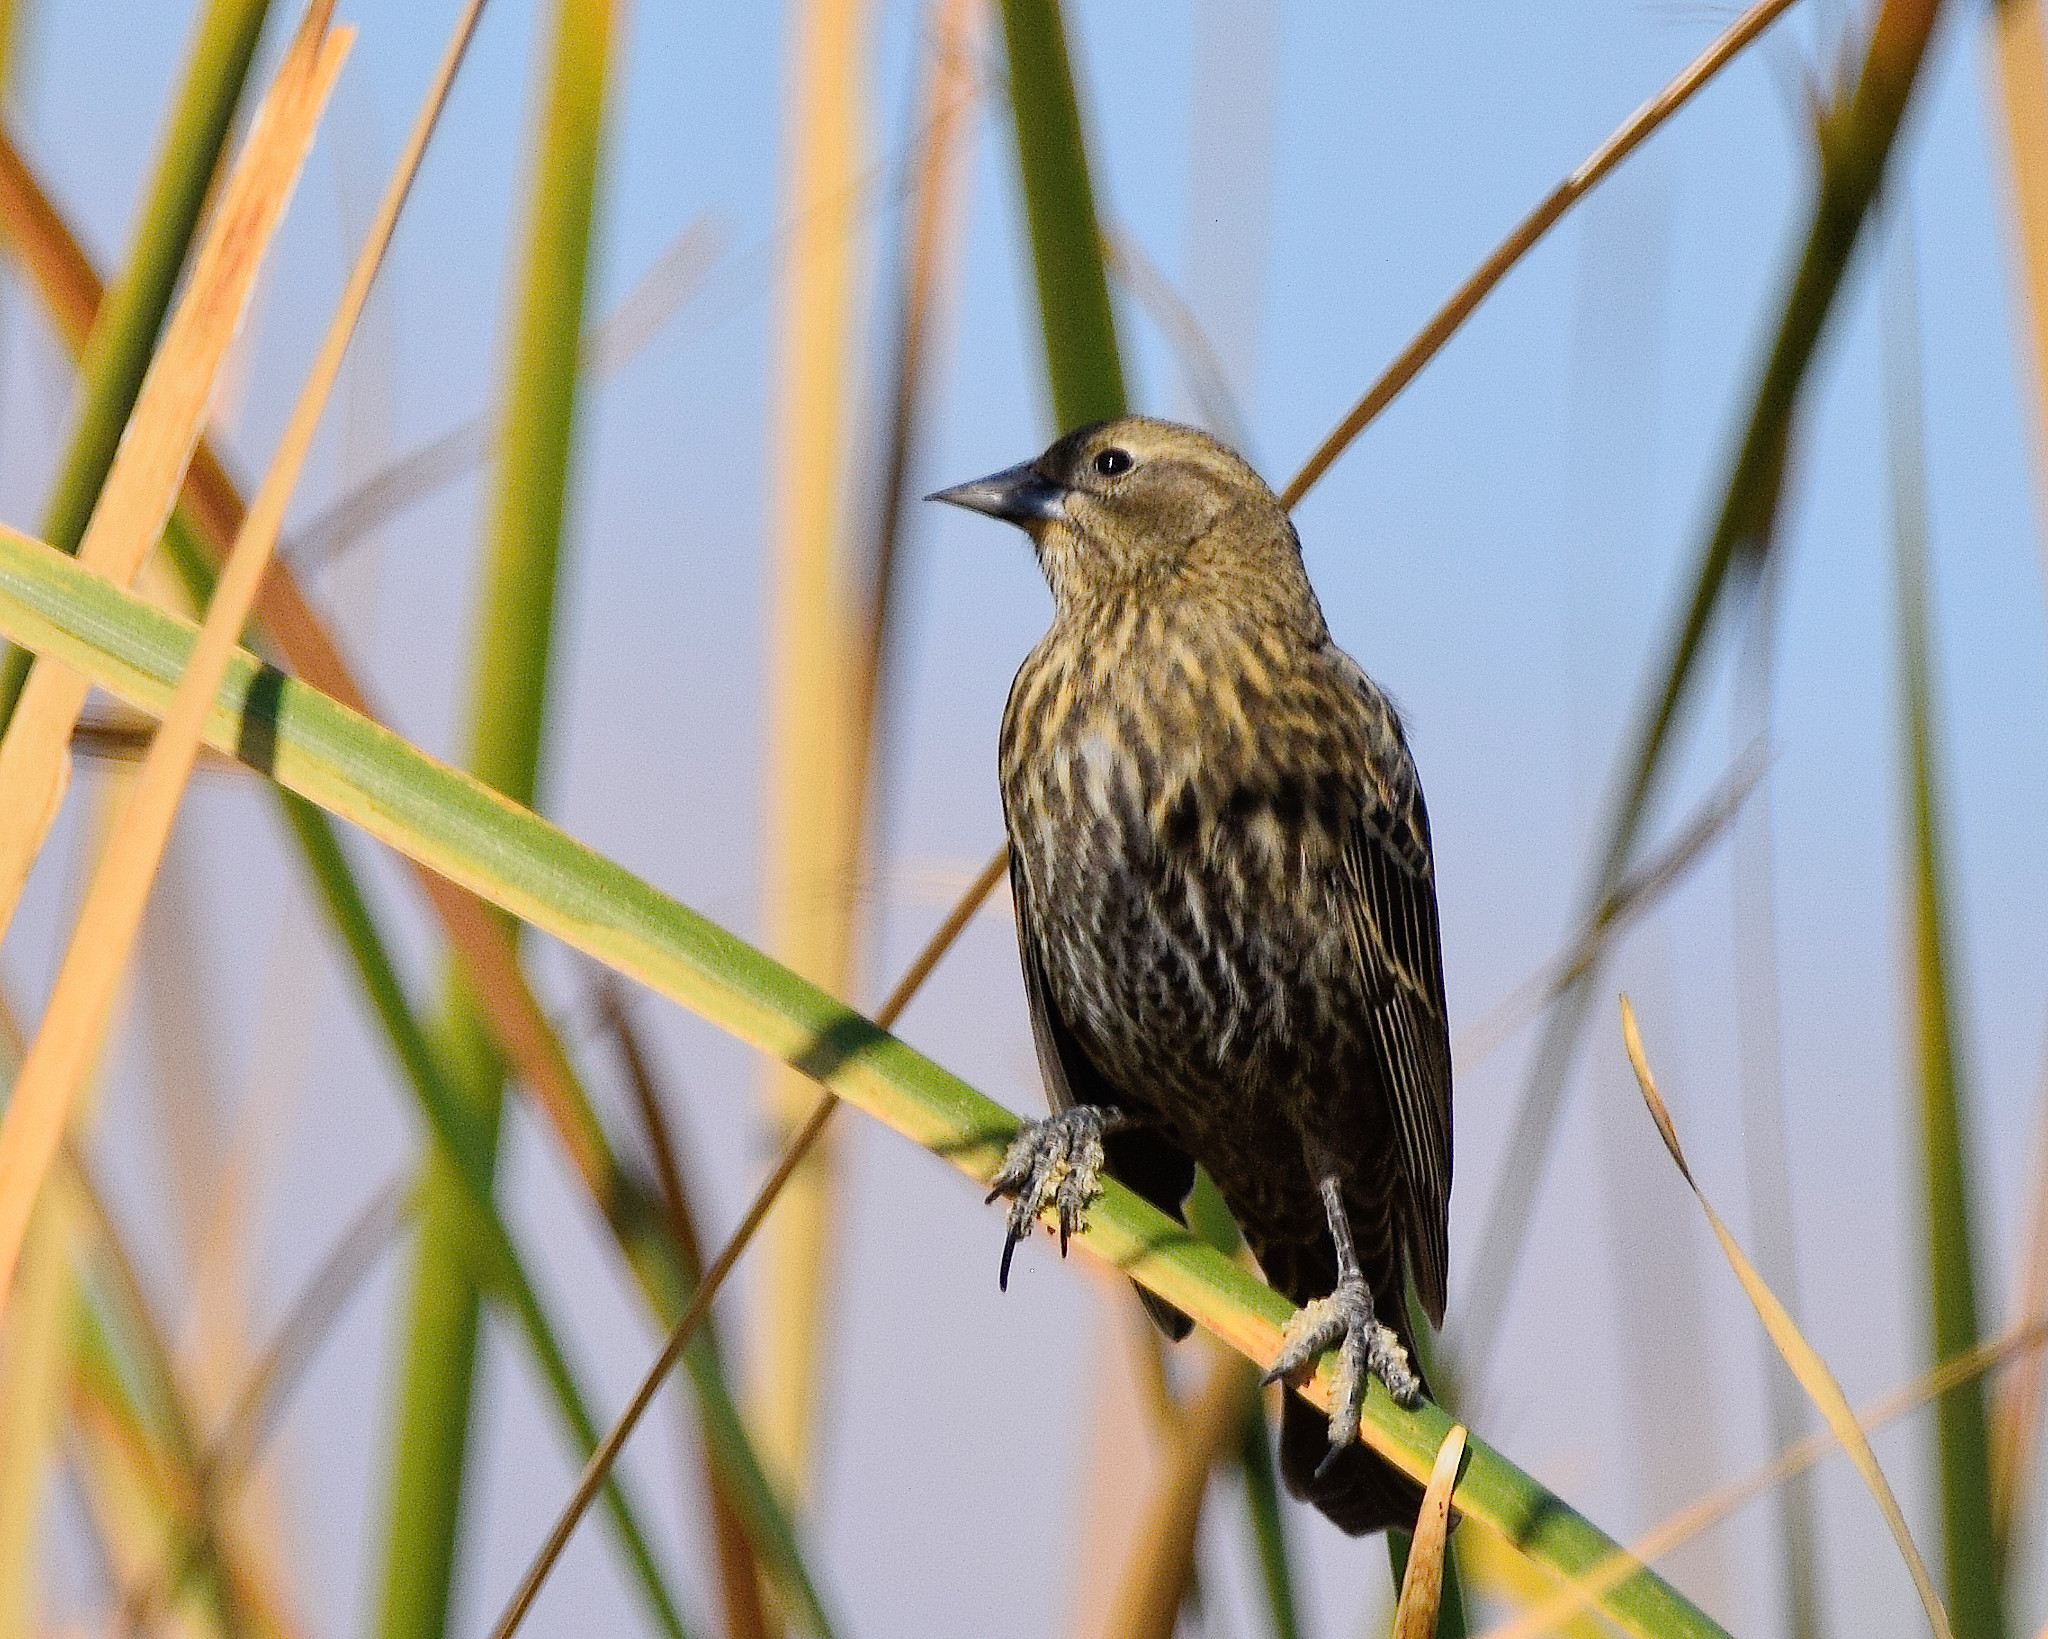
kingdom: Animalia
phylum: Chordata
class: Aves
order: Passeriformes
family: Icteridae
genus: Agelaius
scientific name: Agelaius phoeniceus
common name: Red-winged blackbird
